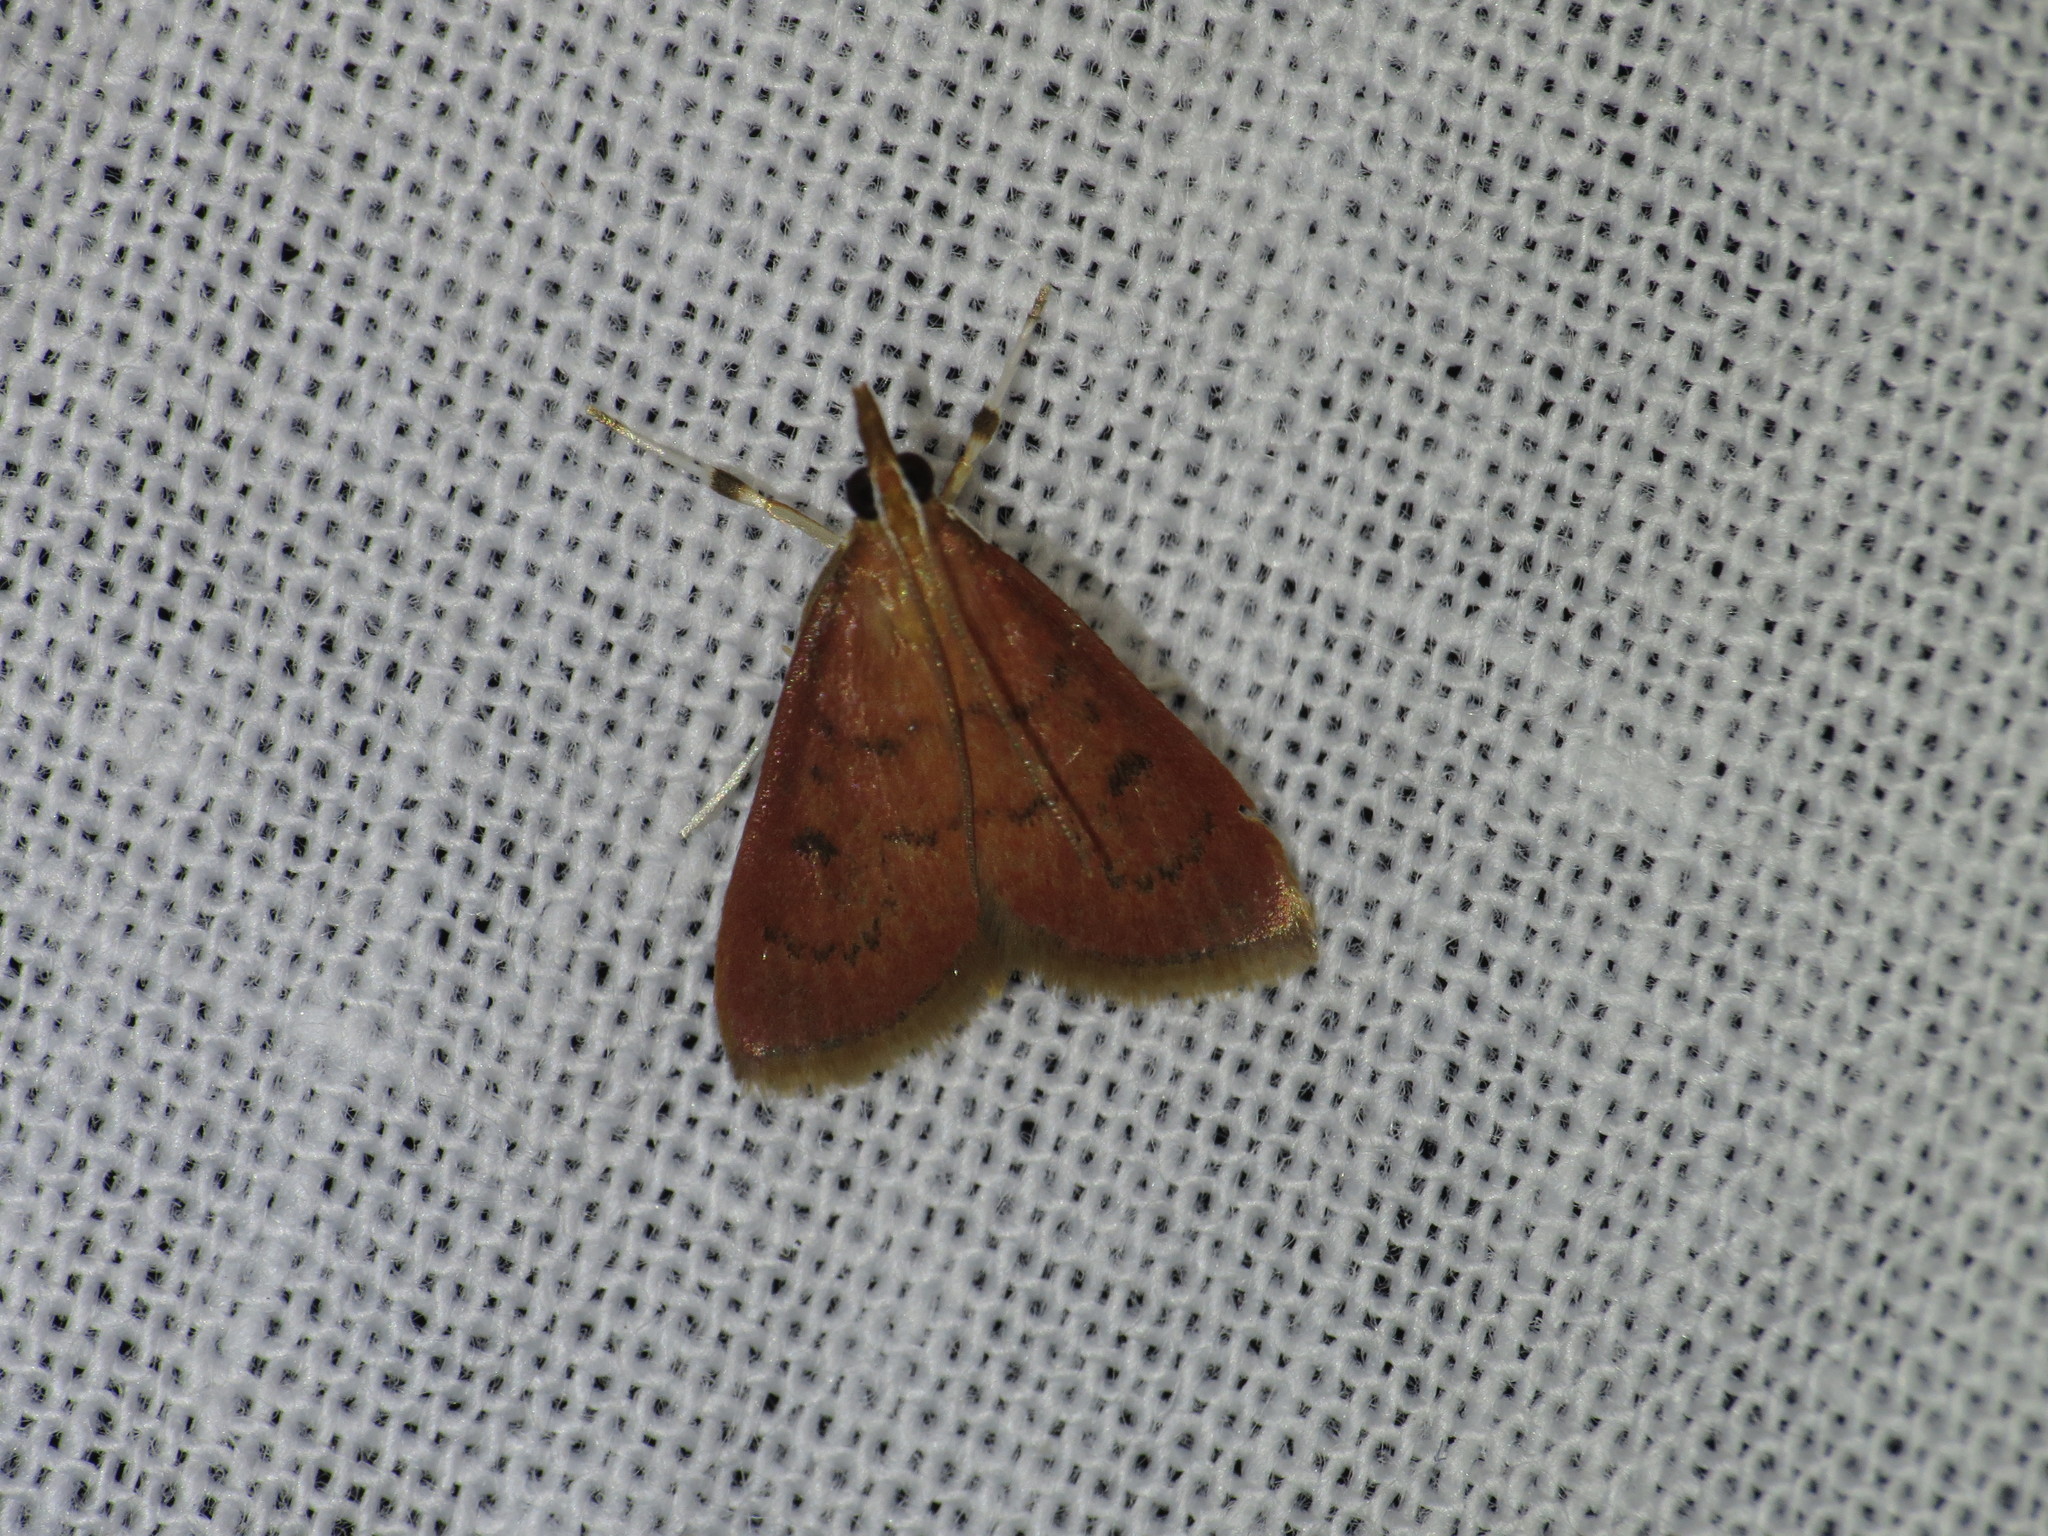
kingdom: Animalia
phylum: Arthropoda
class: Insecta
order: Lepidoptera
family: Crambidae
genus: Oenobotys
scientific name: Oenobotys vinotinctalis
